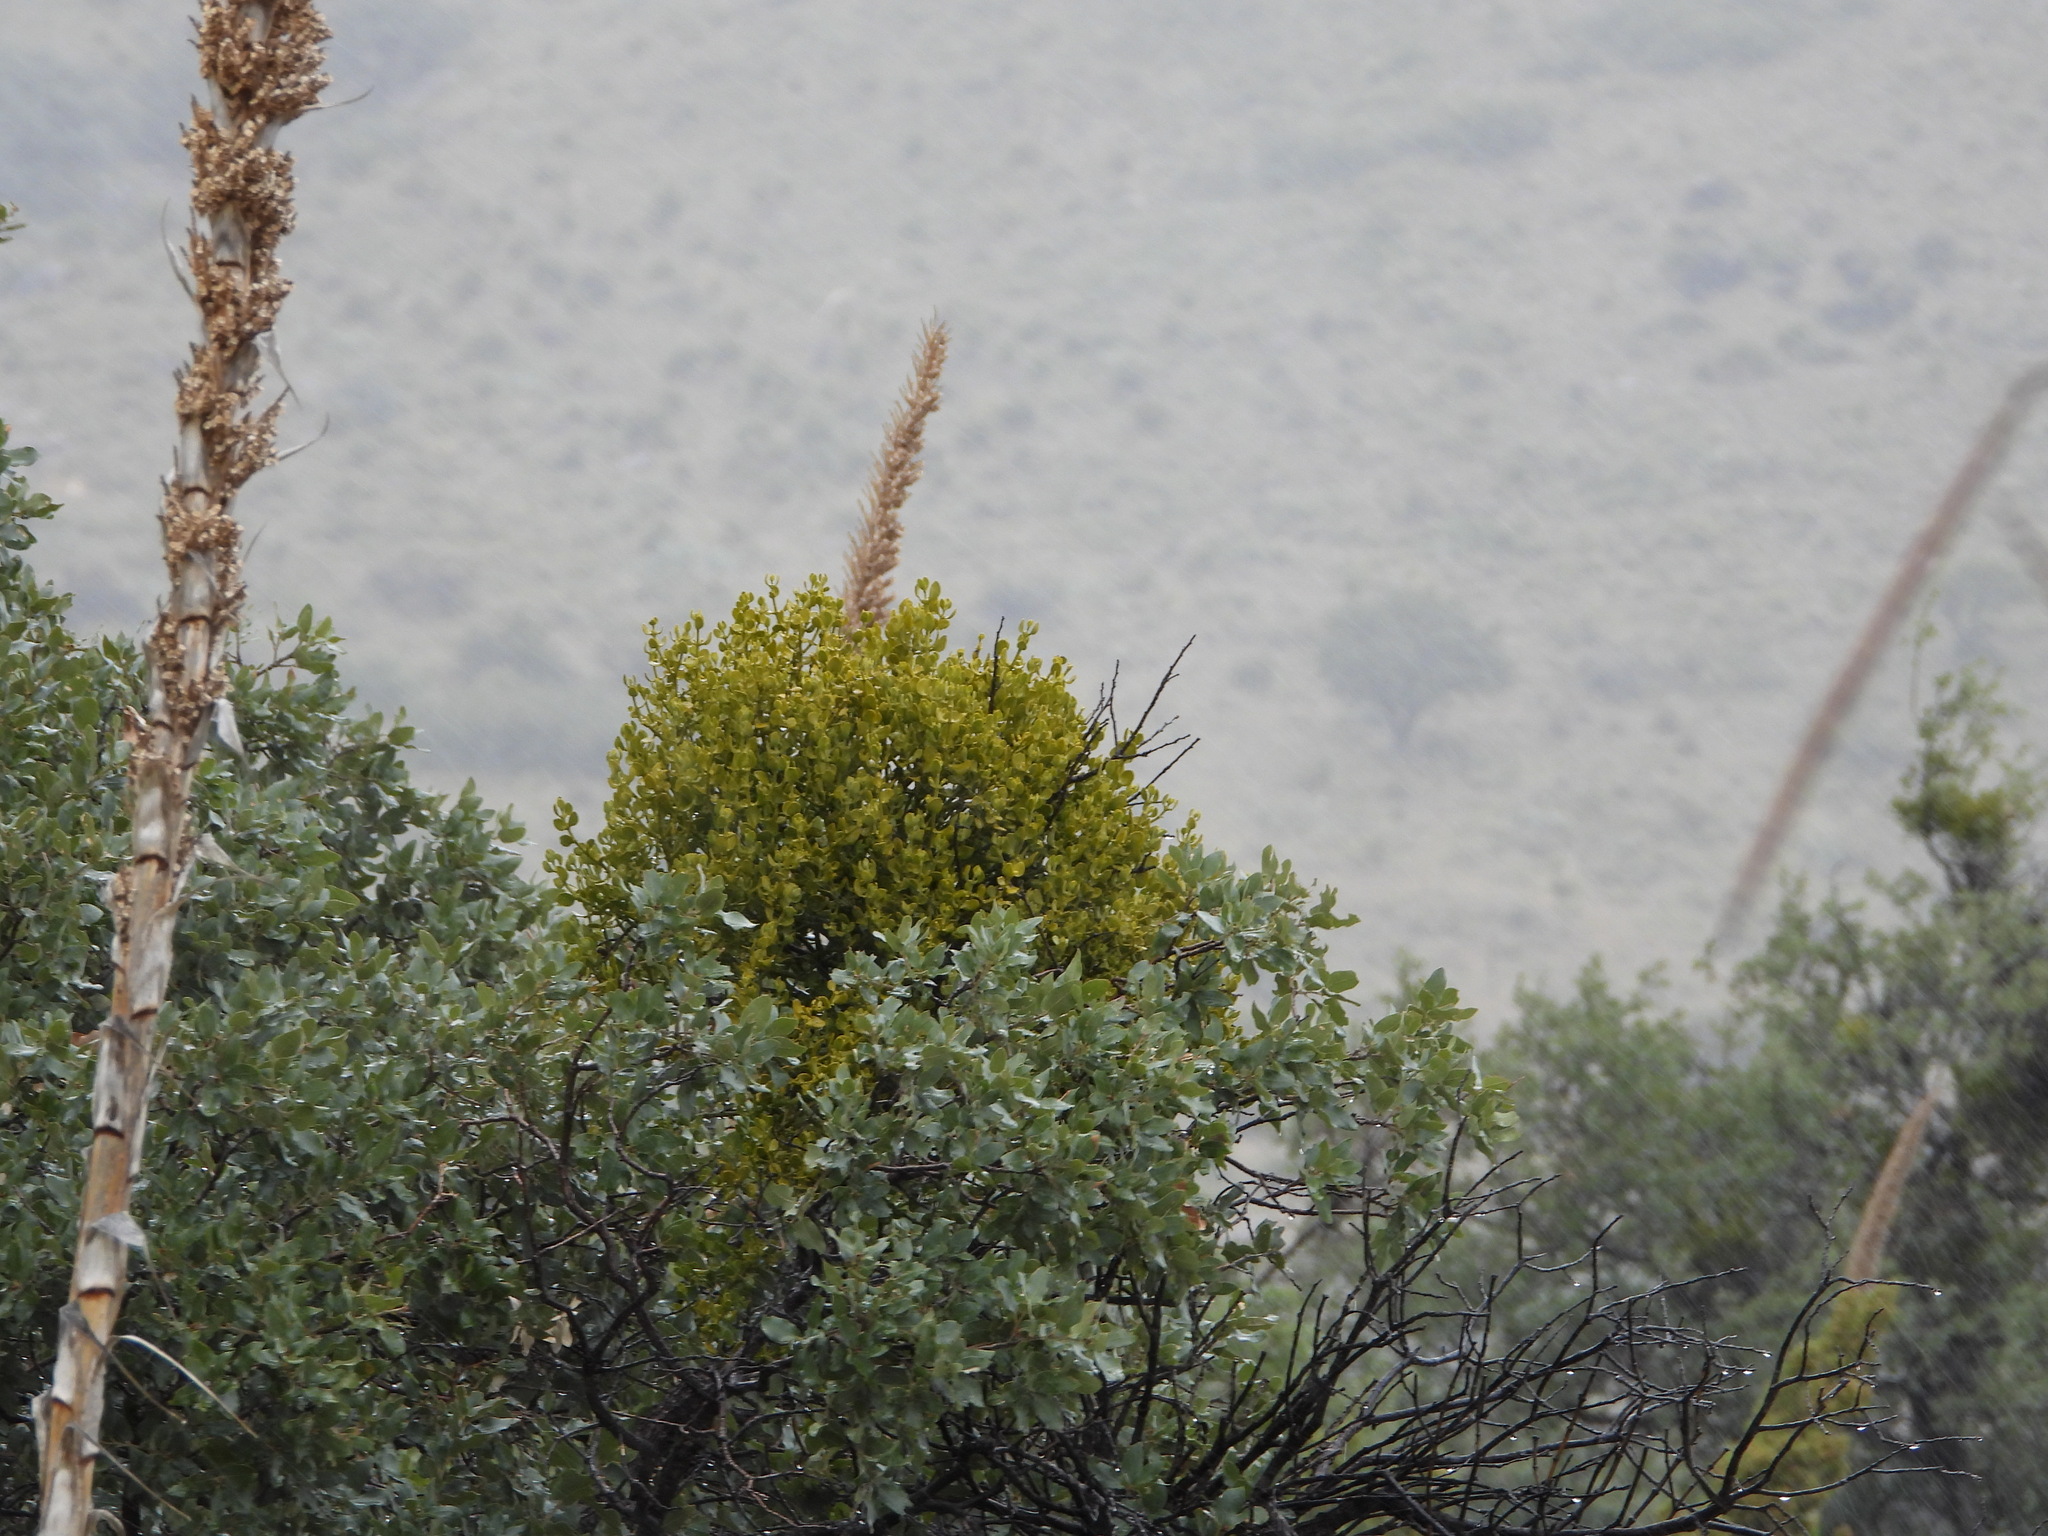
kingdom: Plantae
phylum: Tracheophyta
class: Magnoliopsida
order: Fagales
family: Fagaceae
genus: Quercus
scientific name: Quercus grisea
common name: Gray oak
